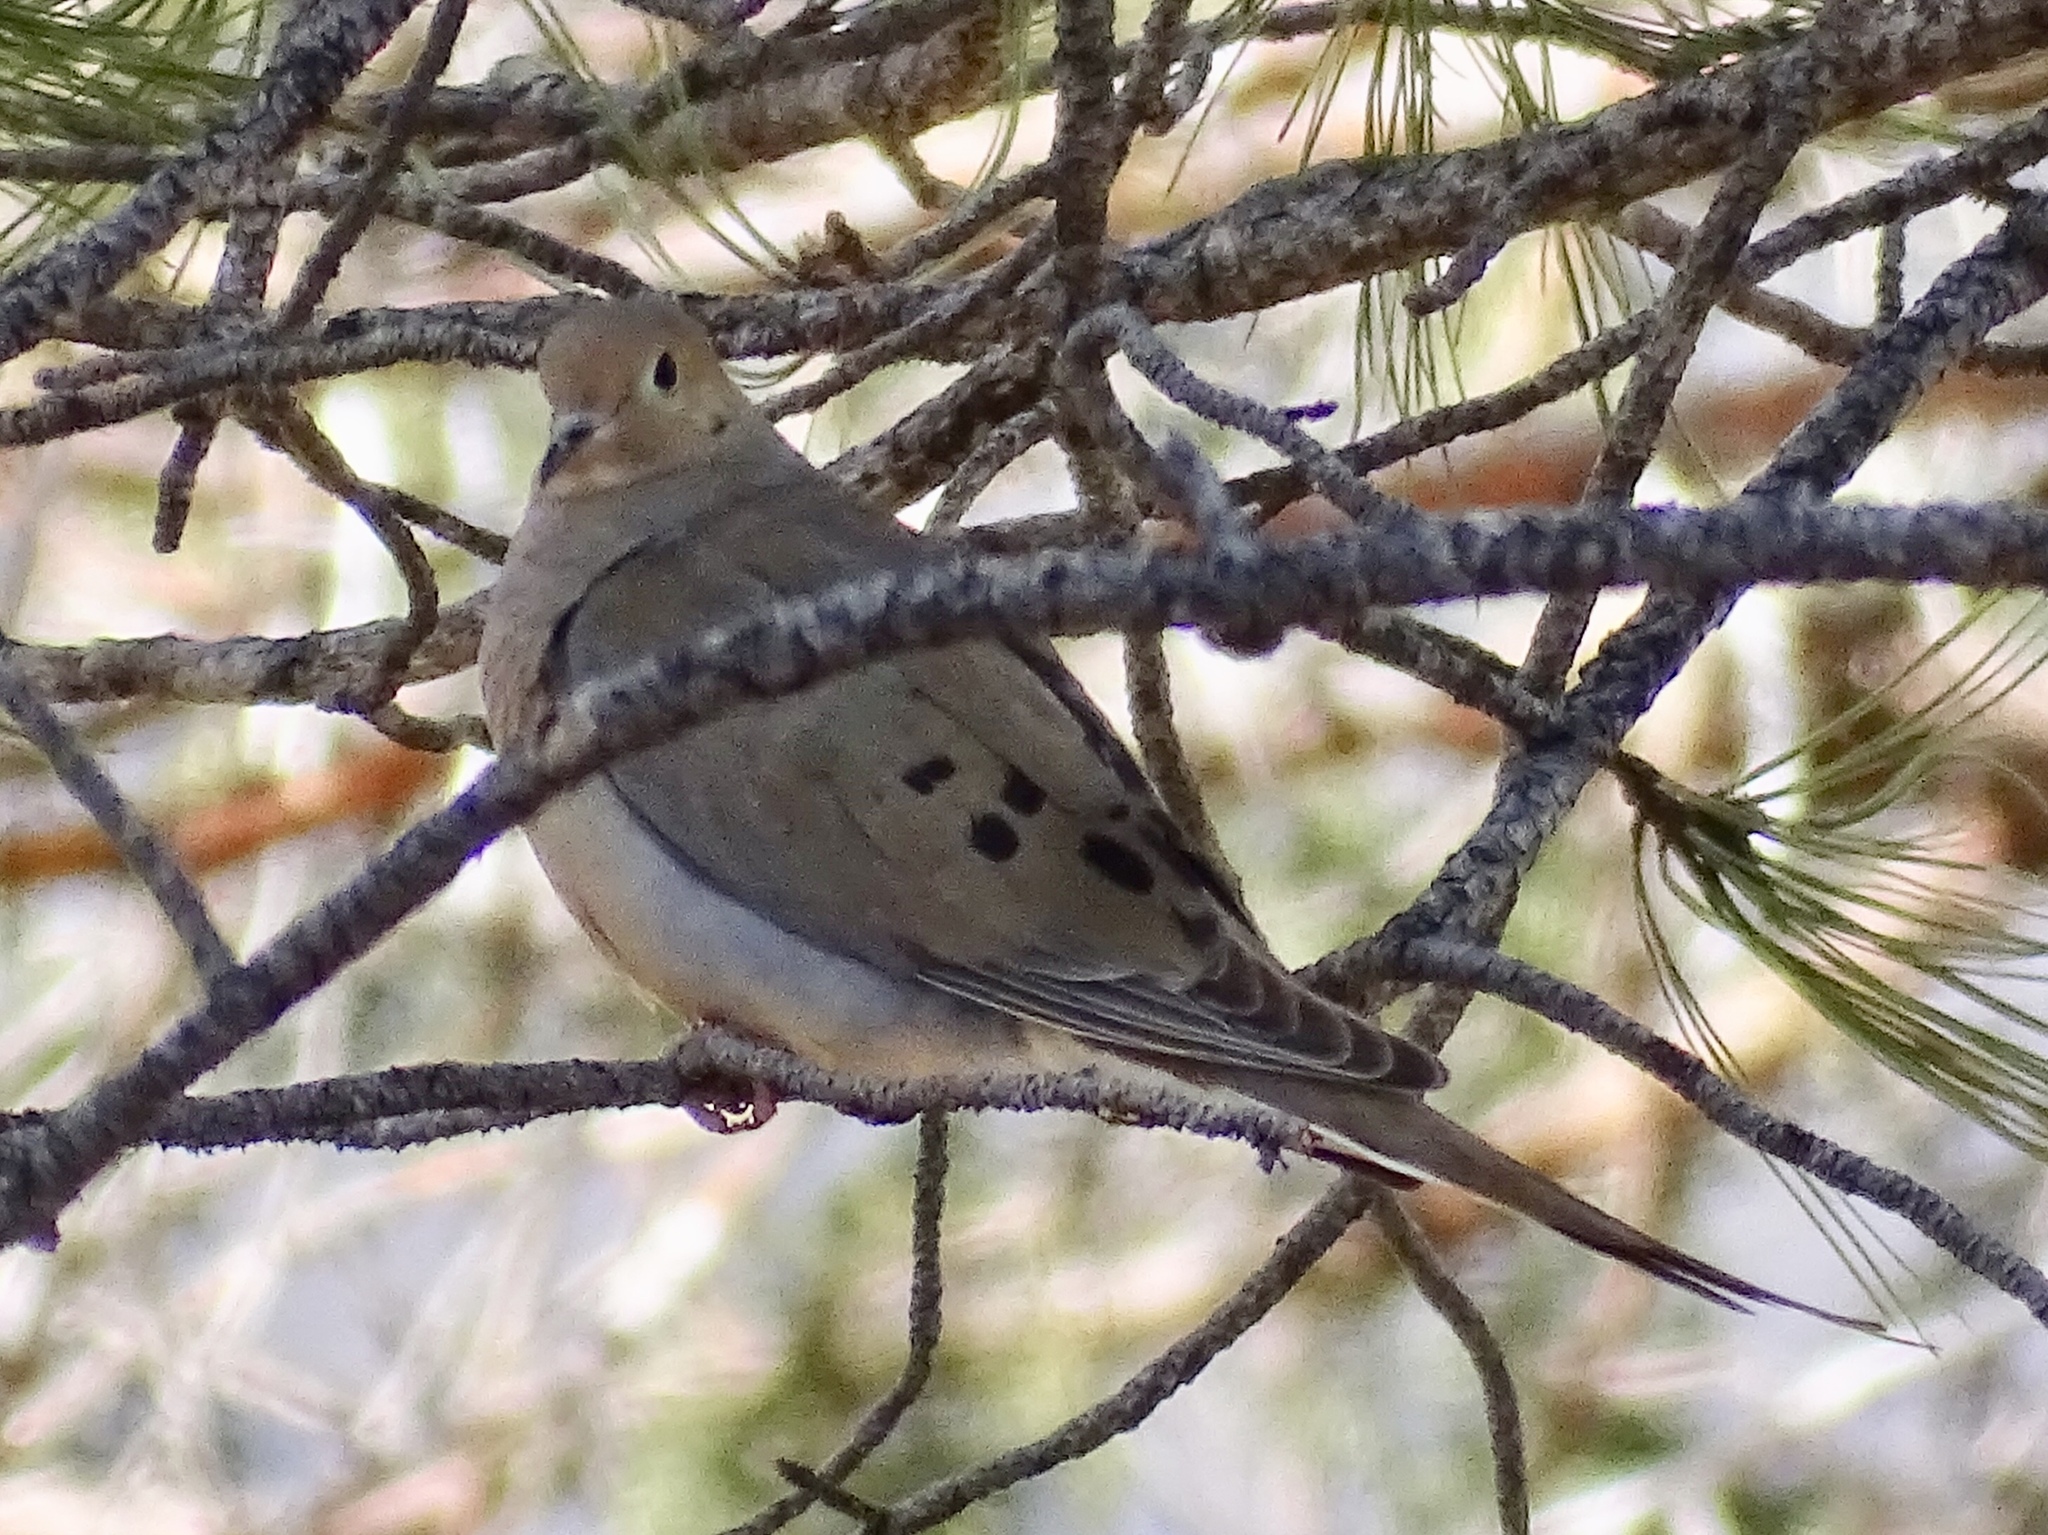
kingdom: Animalia
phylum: Chordata
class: Aves
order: Columbiformes
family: Columbidae
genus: Zenaida
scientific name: Zenaida macroura
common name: Mourning dove
